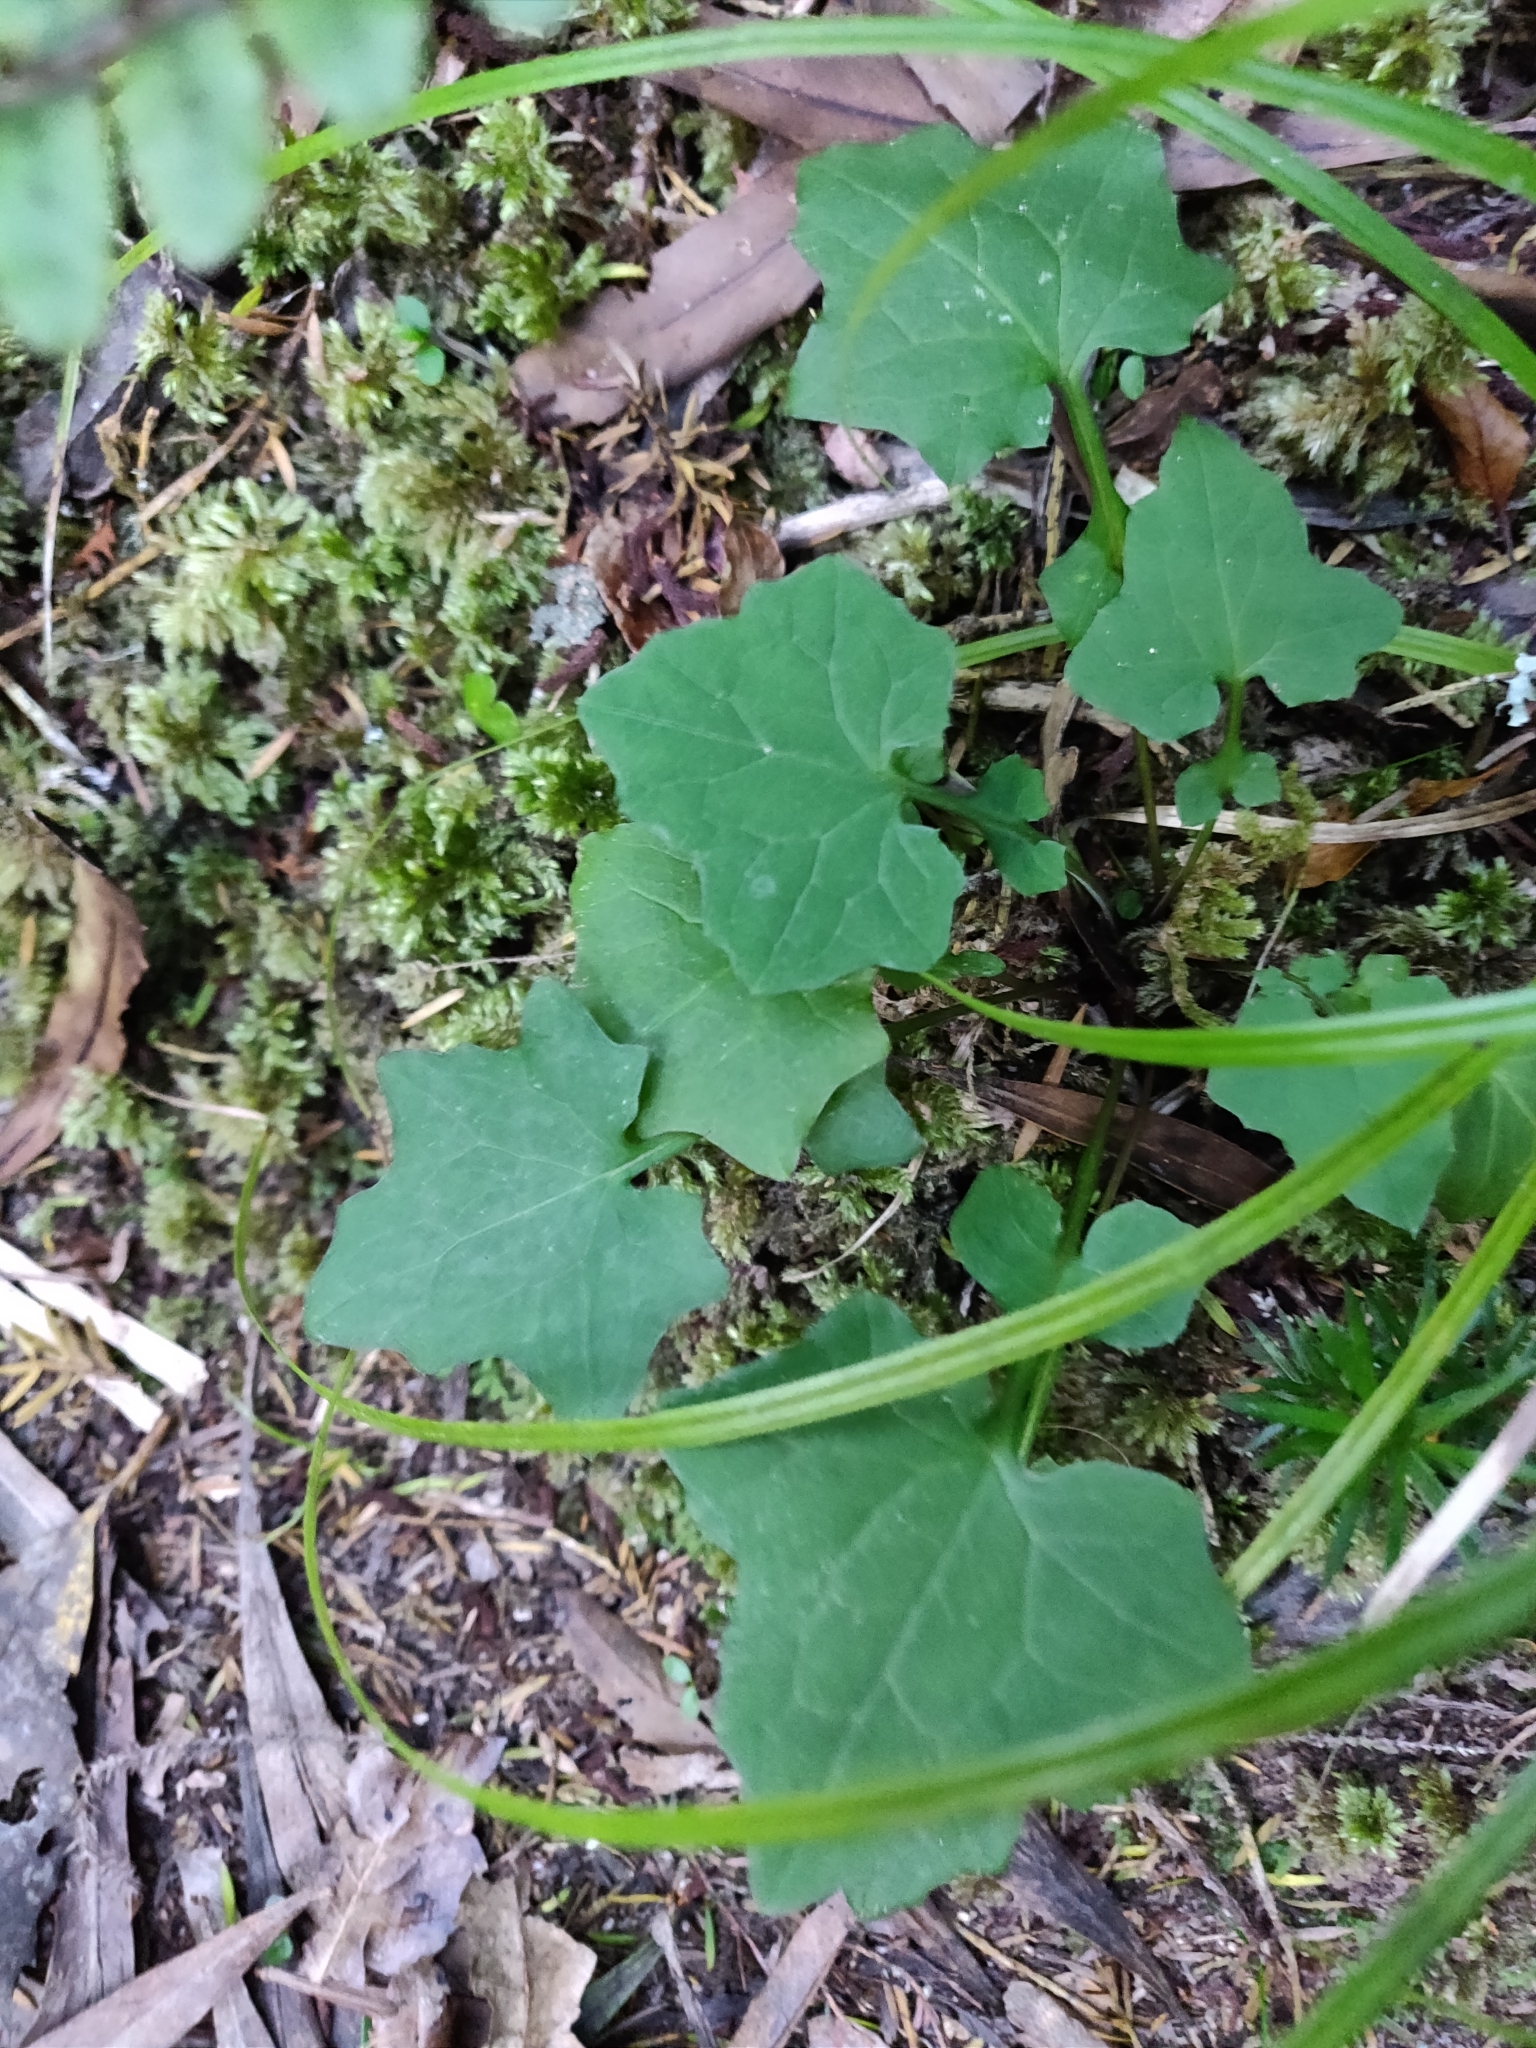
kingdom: Plantae
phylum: Tracheophyta
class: Magnoliopsida
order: Asterales
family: Asteraceae
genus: Mycelis
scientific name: Mycelis muralis
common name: Wall lettuce
